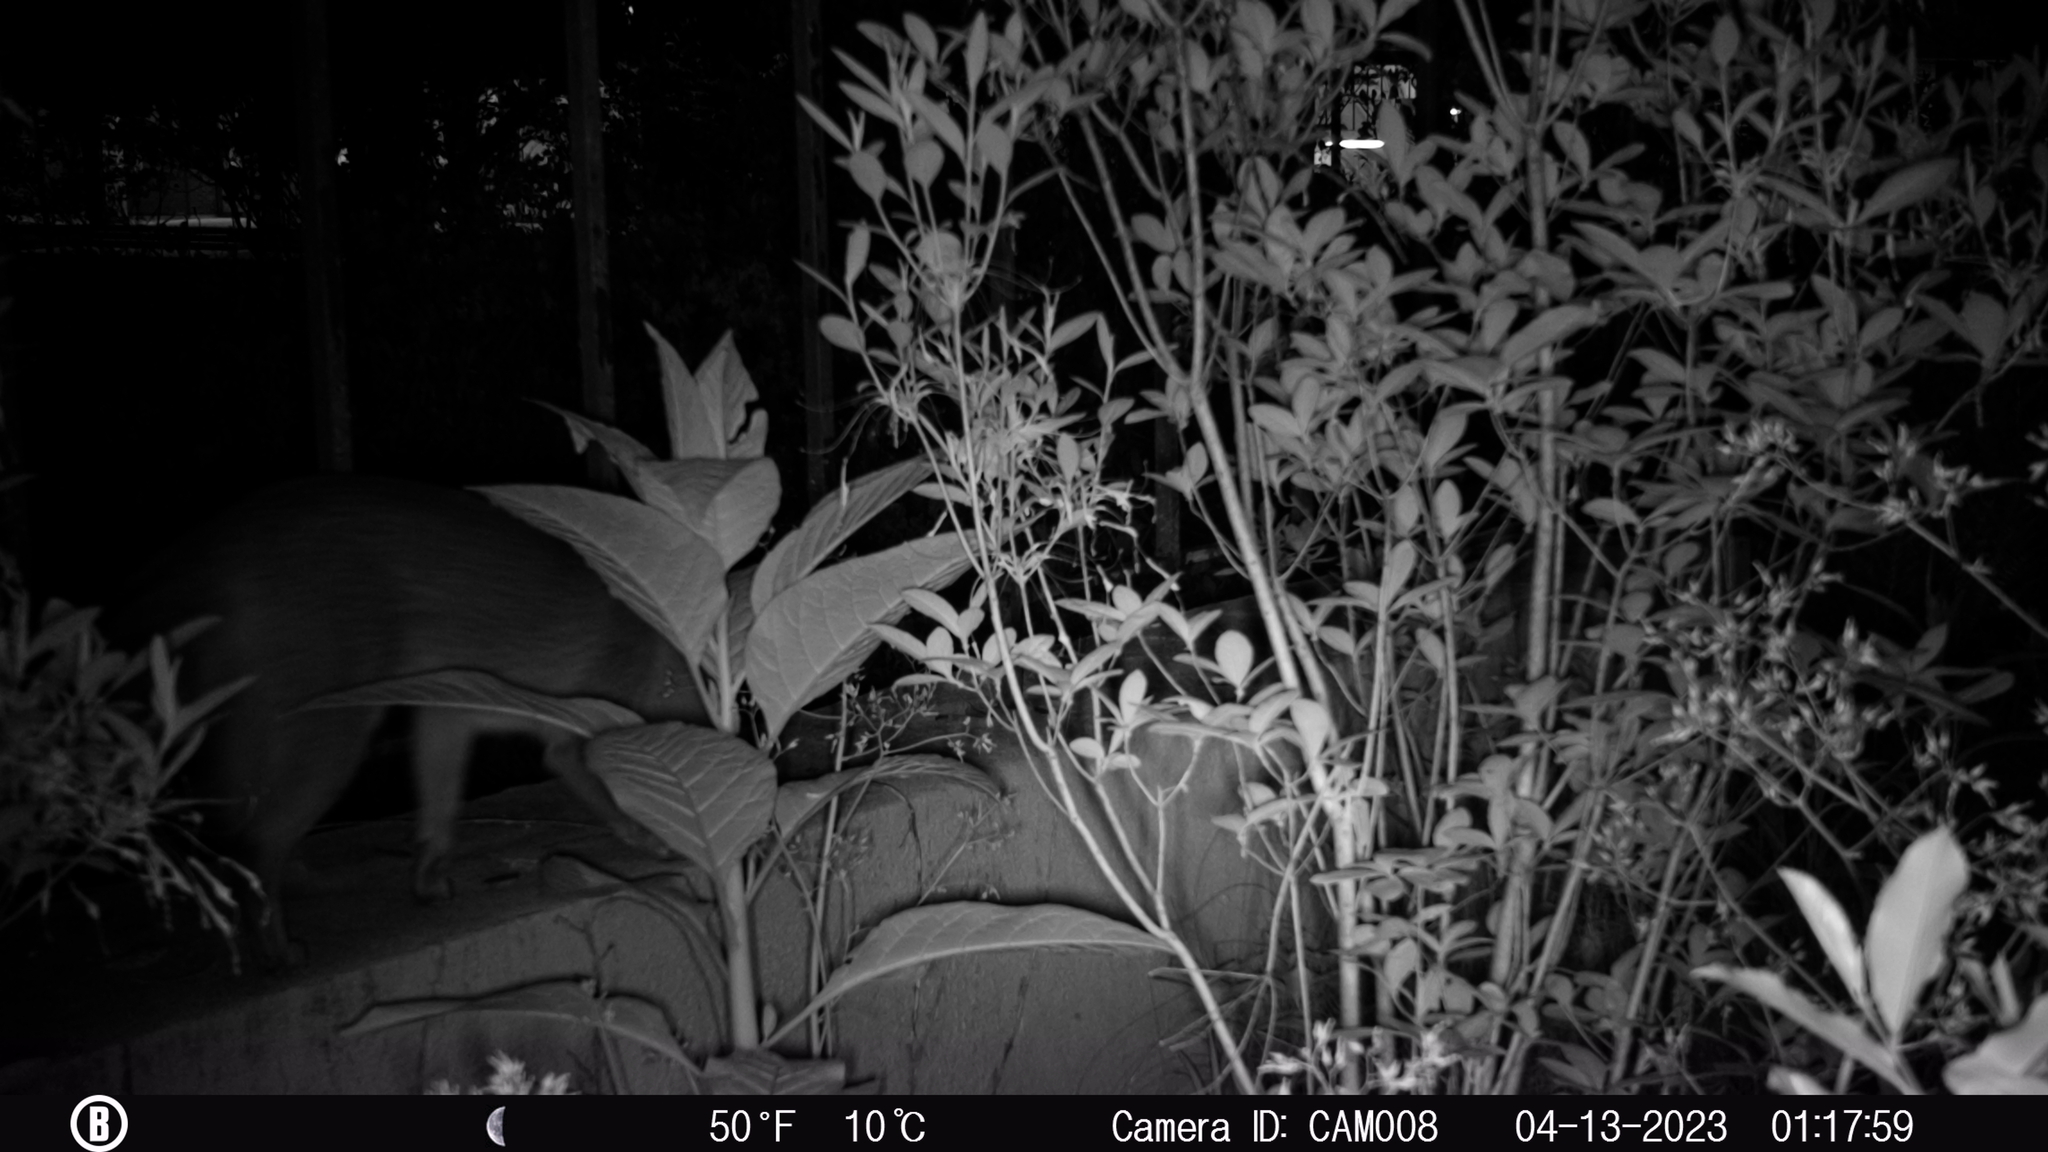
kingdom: Animalia
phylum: Chordata
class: Mammalia
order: Carnivora
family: Canidae
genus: Urocyon
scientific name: Urocyon cinereoargenteus
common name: Gray fox
